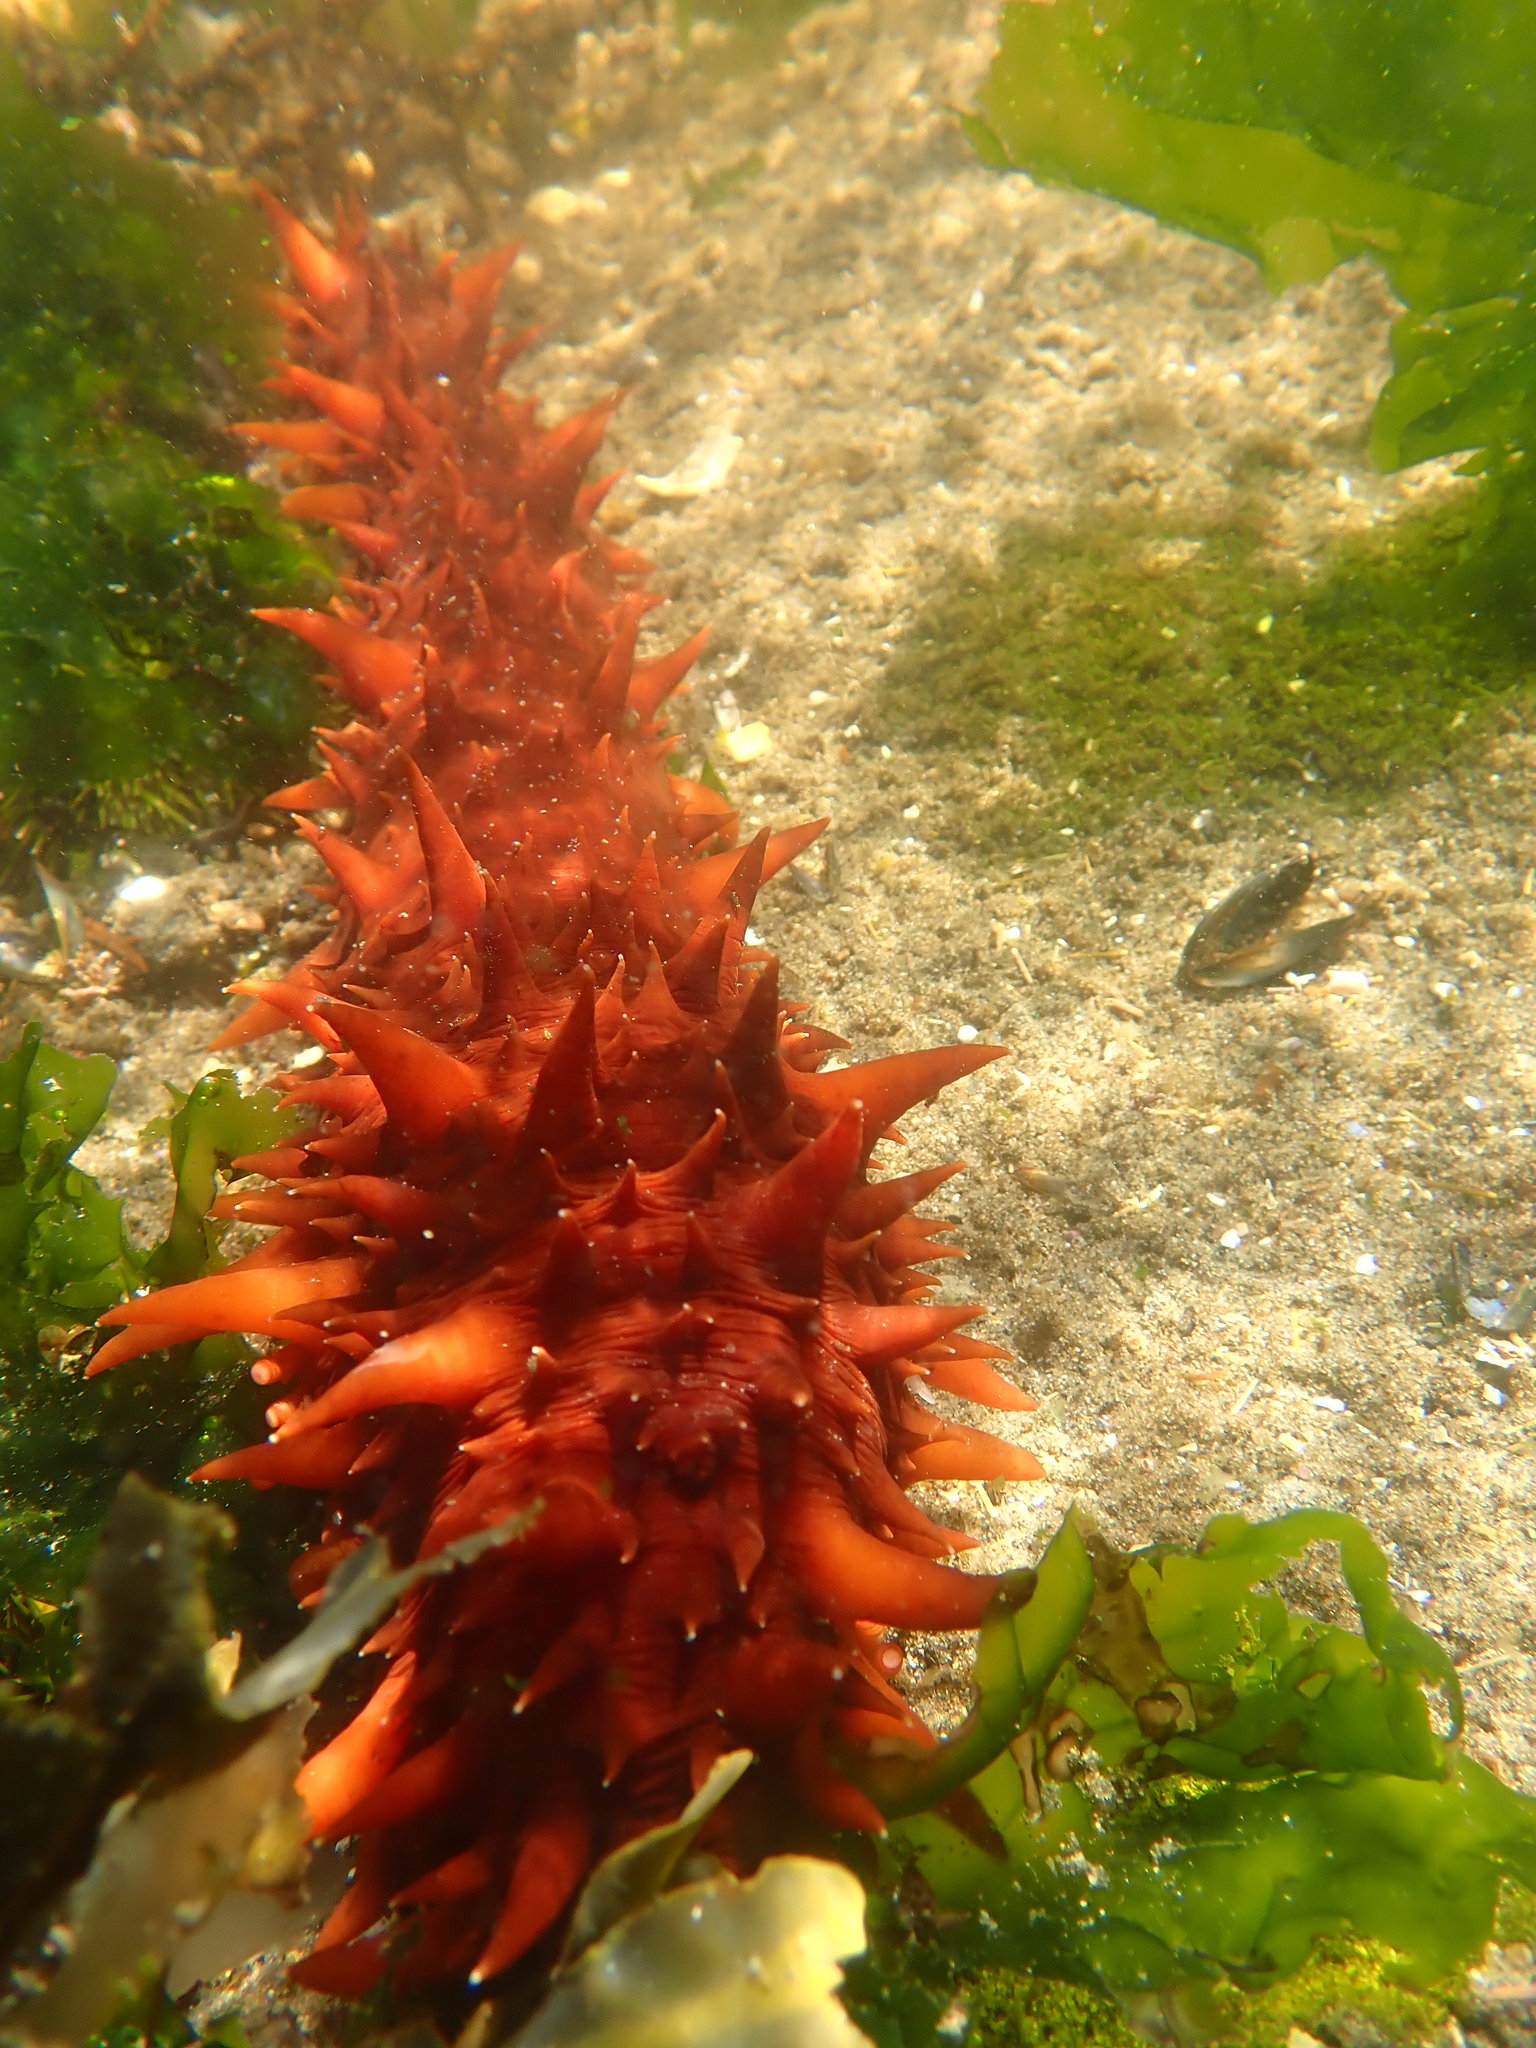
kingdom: Animalia
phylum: Echinodermata
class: Holothuroidea
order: Synallactida
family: Stichopodidae
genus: Apostichopus
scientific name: Apostichopus californicus
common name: California sea cucumber
